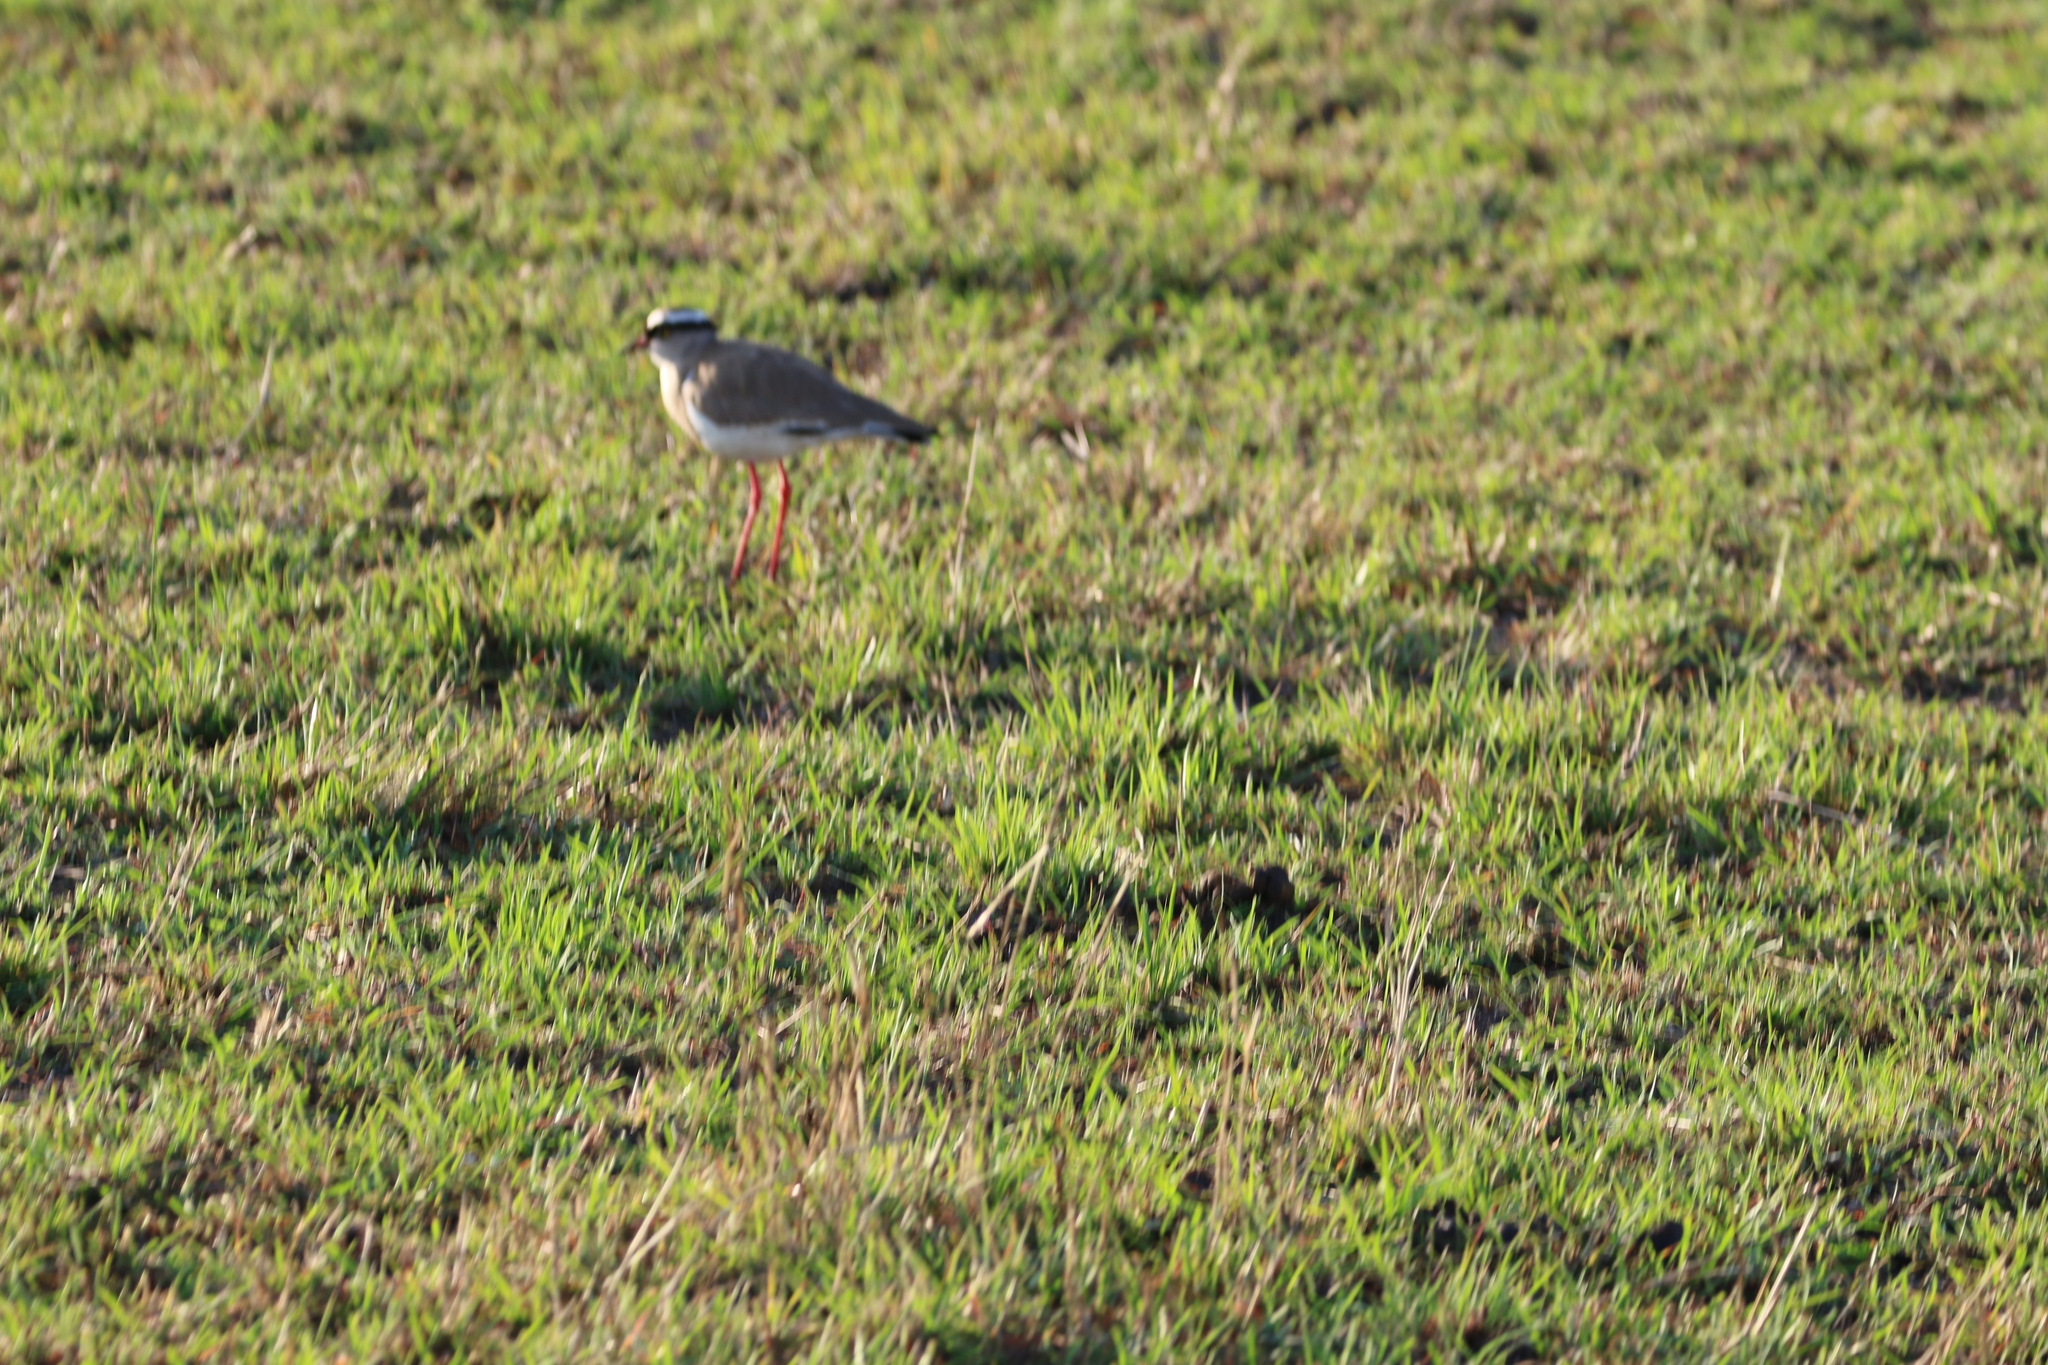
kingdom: Animalia
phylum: Chordata
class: Aves
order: Charadriiformes
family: Charadriidae
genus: Vanellus
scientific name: Vanellus coronatus
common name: Crowned lapwing
